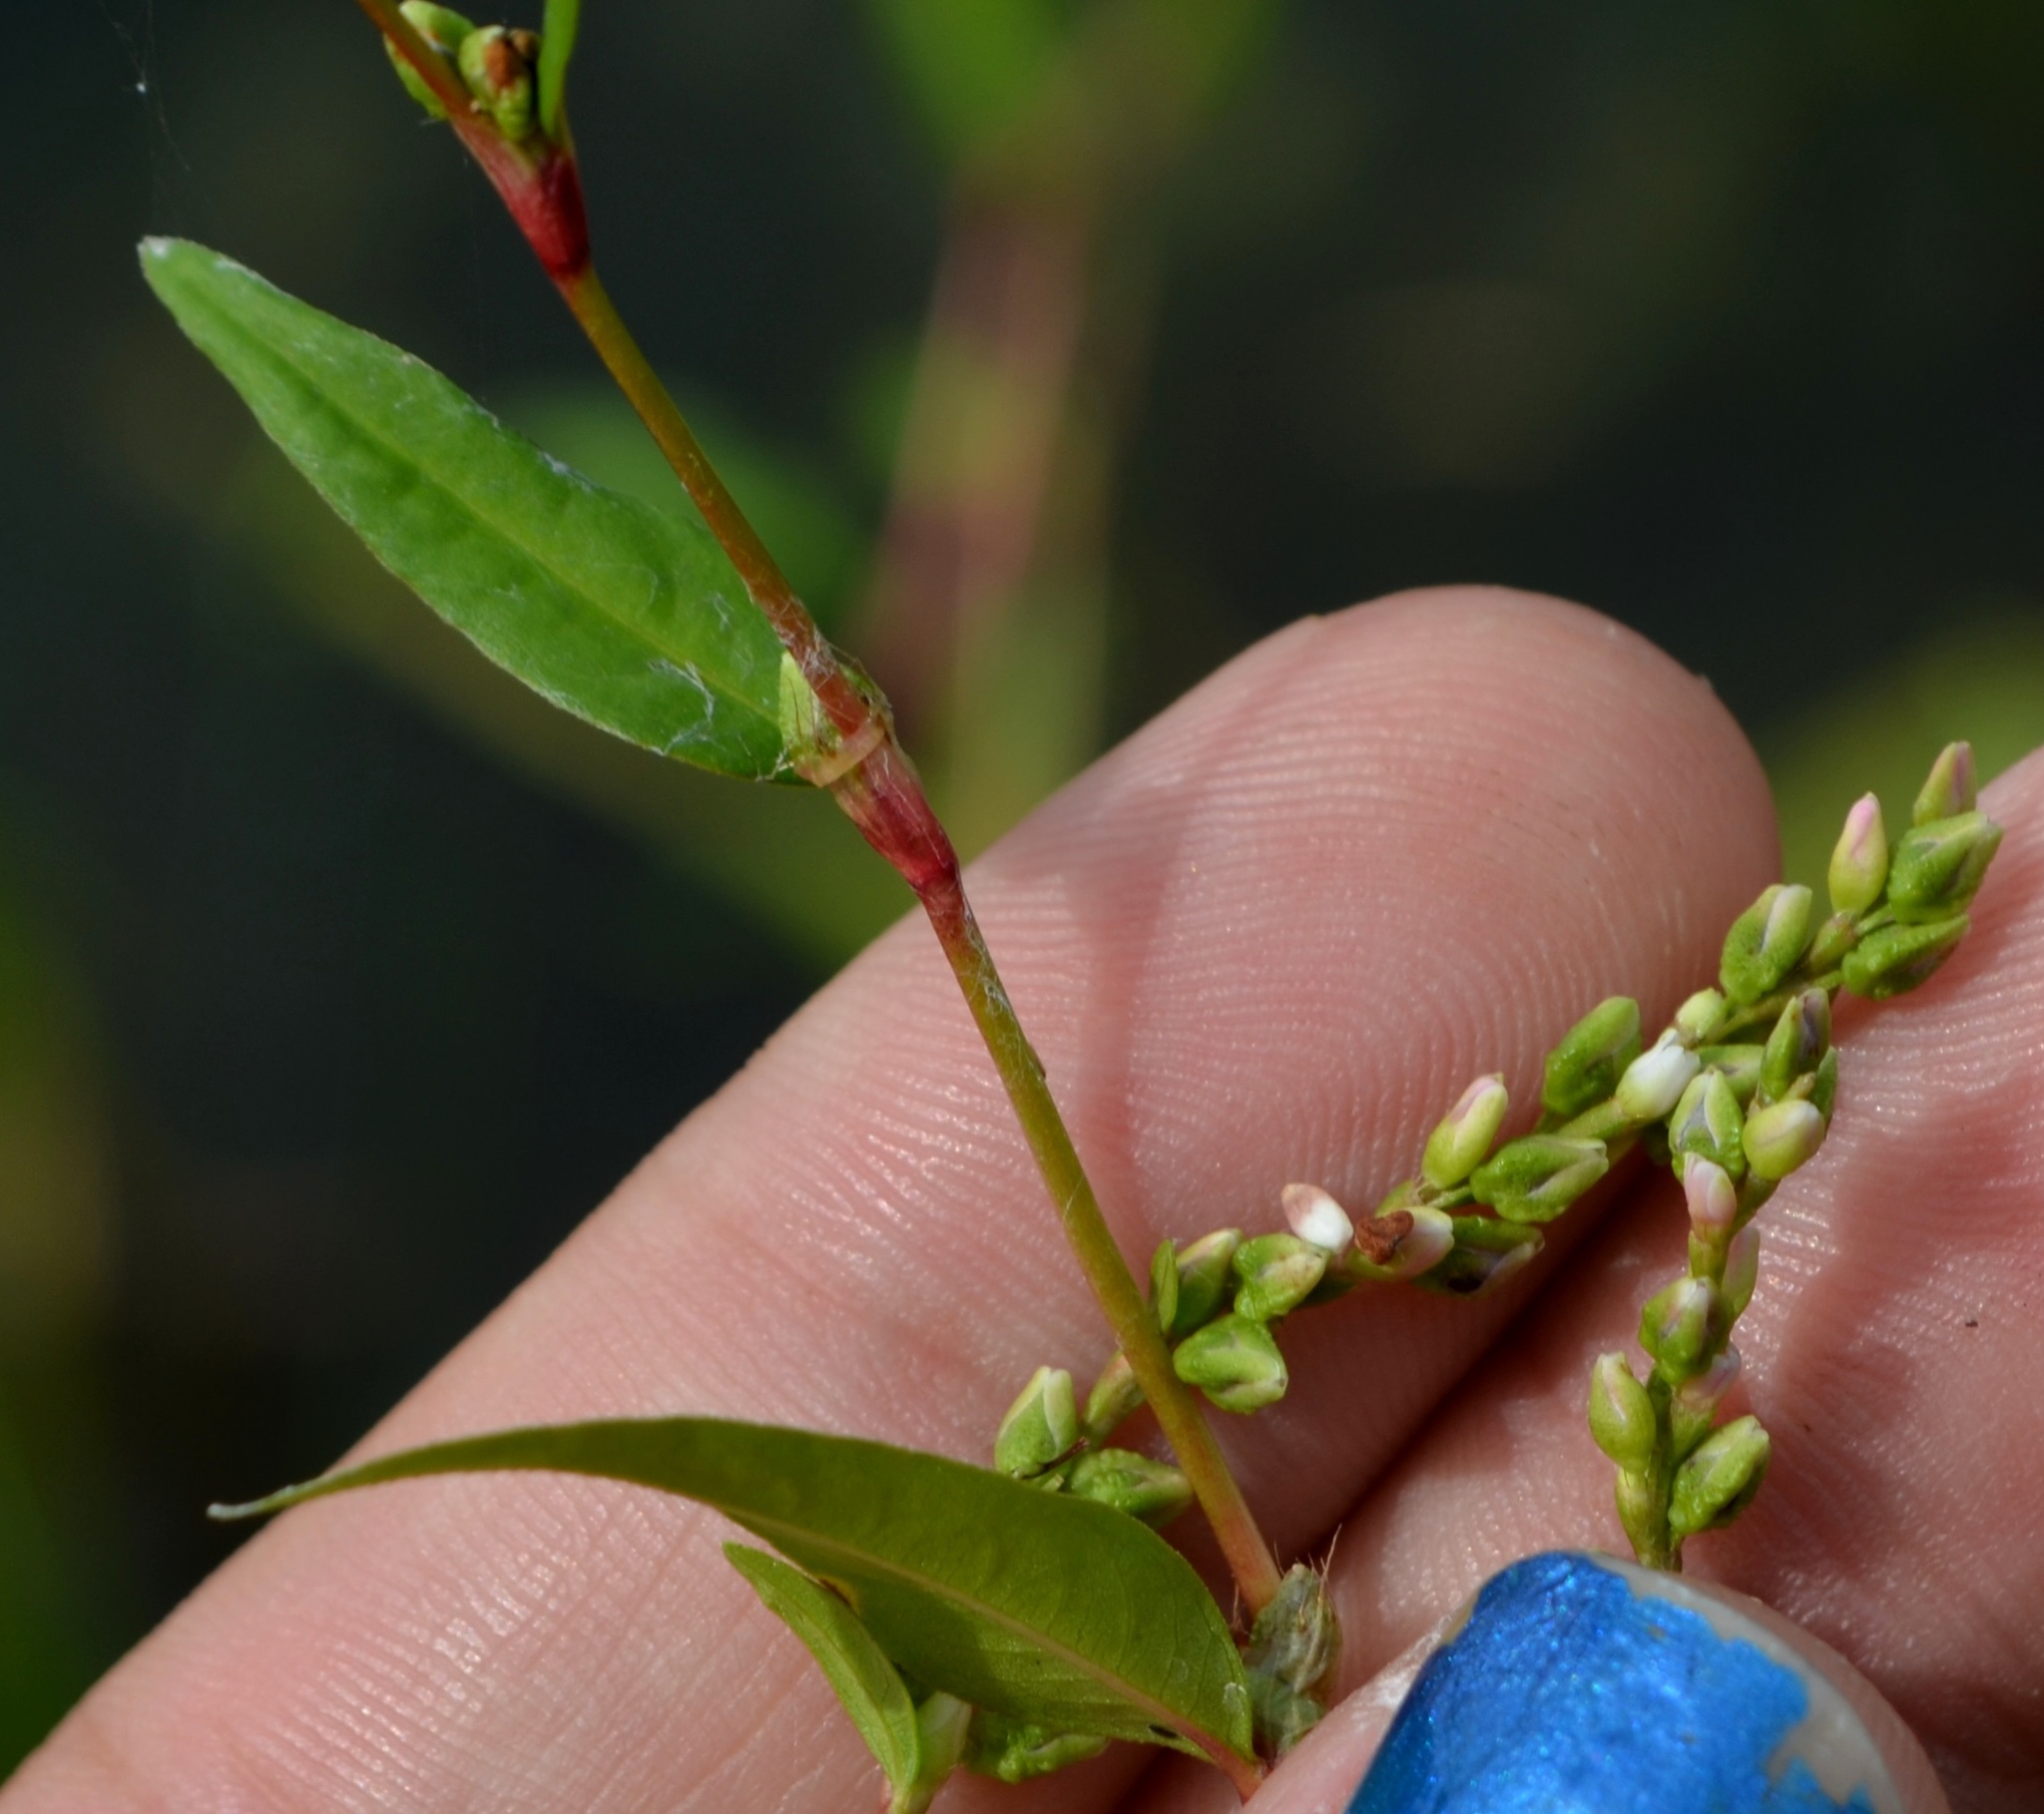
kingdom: Plantae
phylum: Tracheophyta
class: Magnoliopsida
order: Caryophyllales
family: Polygonaceae
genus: Persicaria
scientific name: Persicaria hydropiper
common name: Water-pepper
